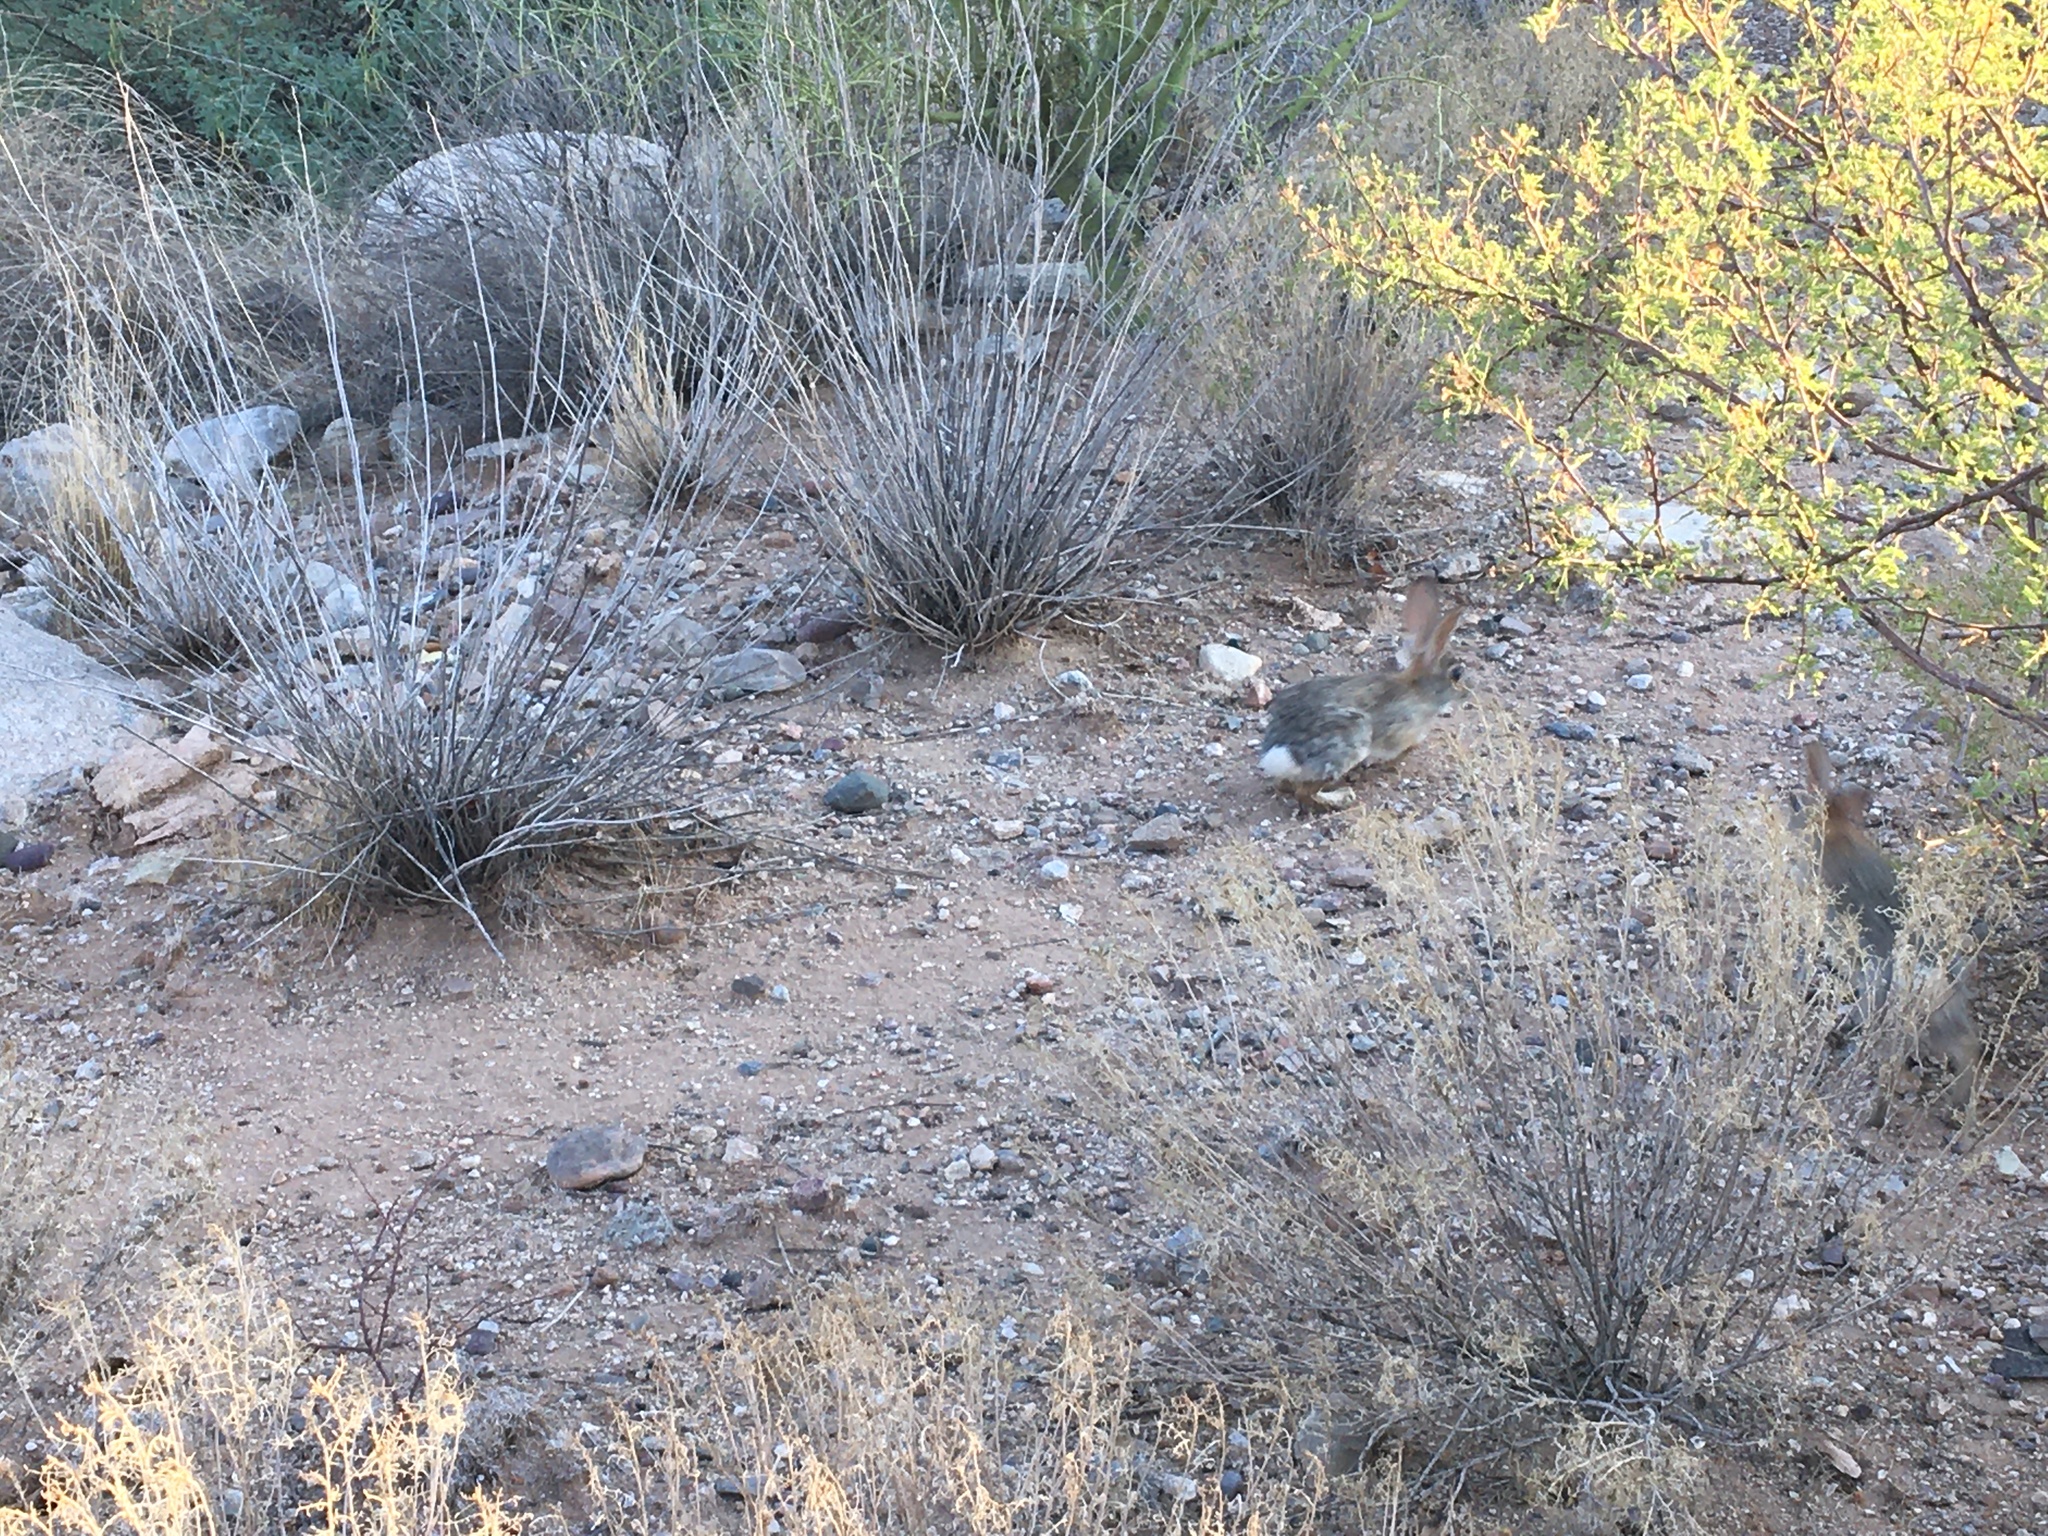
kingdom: Animalia
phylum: Chordata
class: Mammalia
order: Lagomorpha
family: Leporidae
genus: Sylvilagus
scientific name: Sylvilagus audubonii
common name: Desert cottontail
